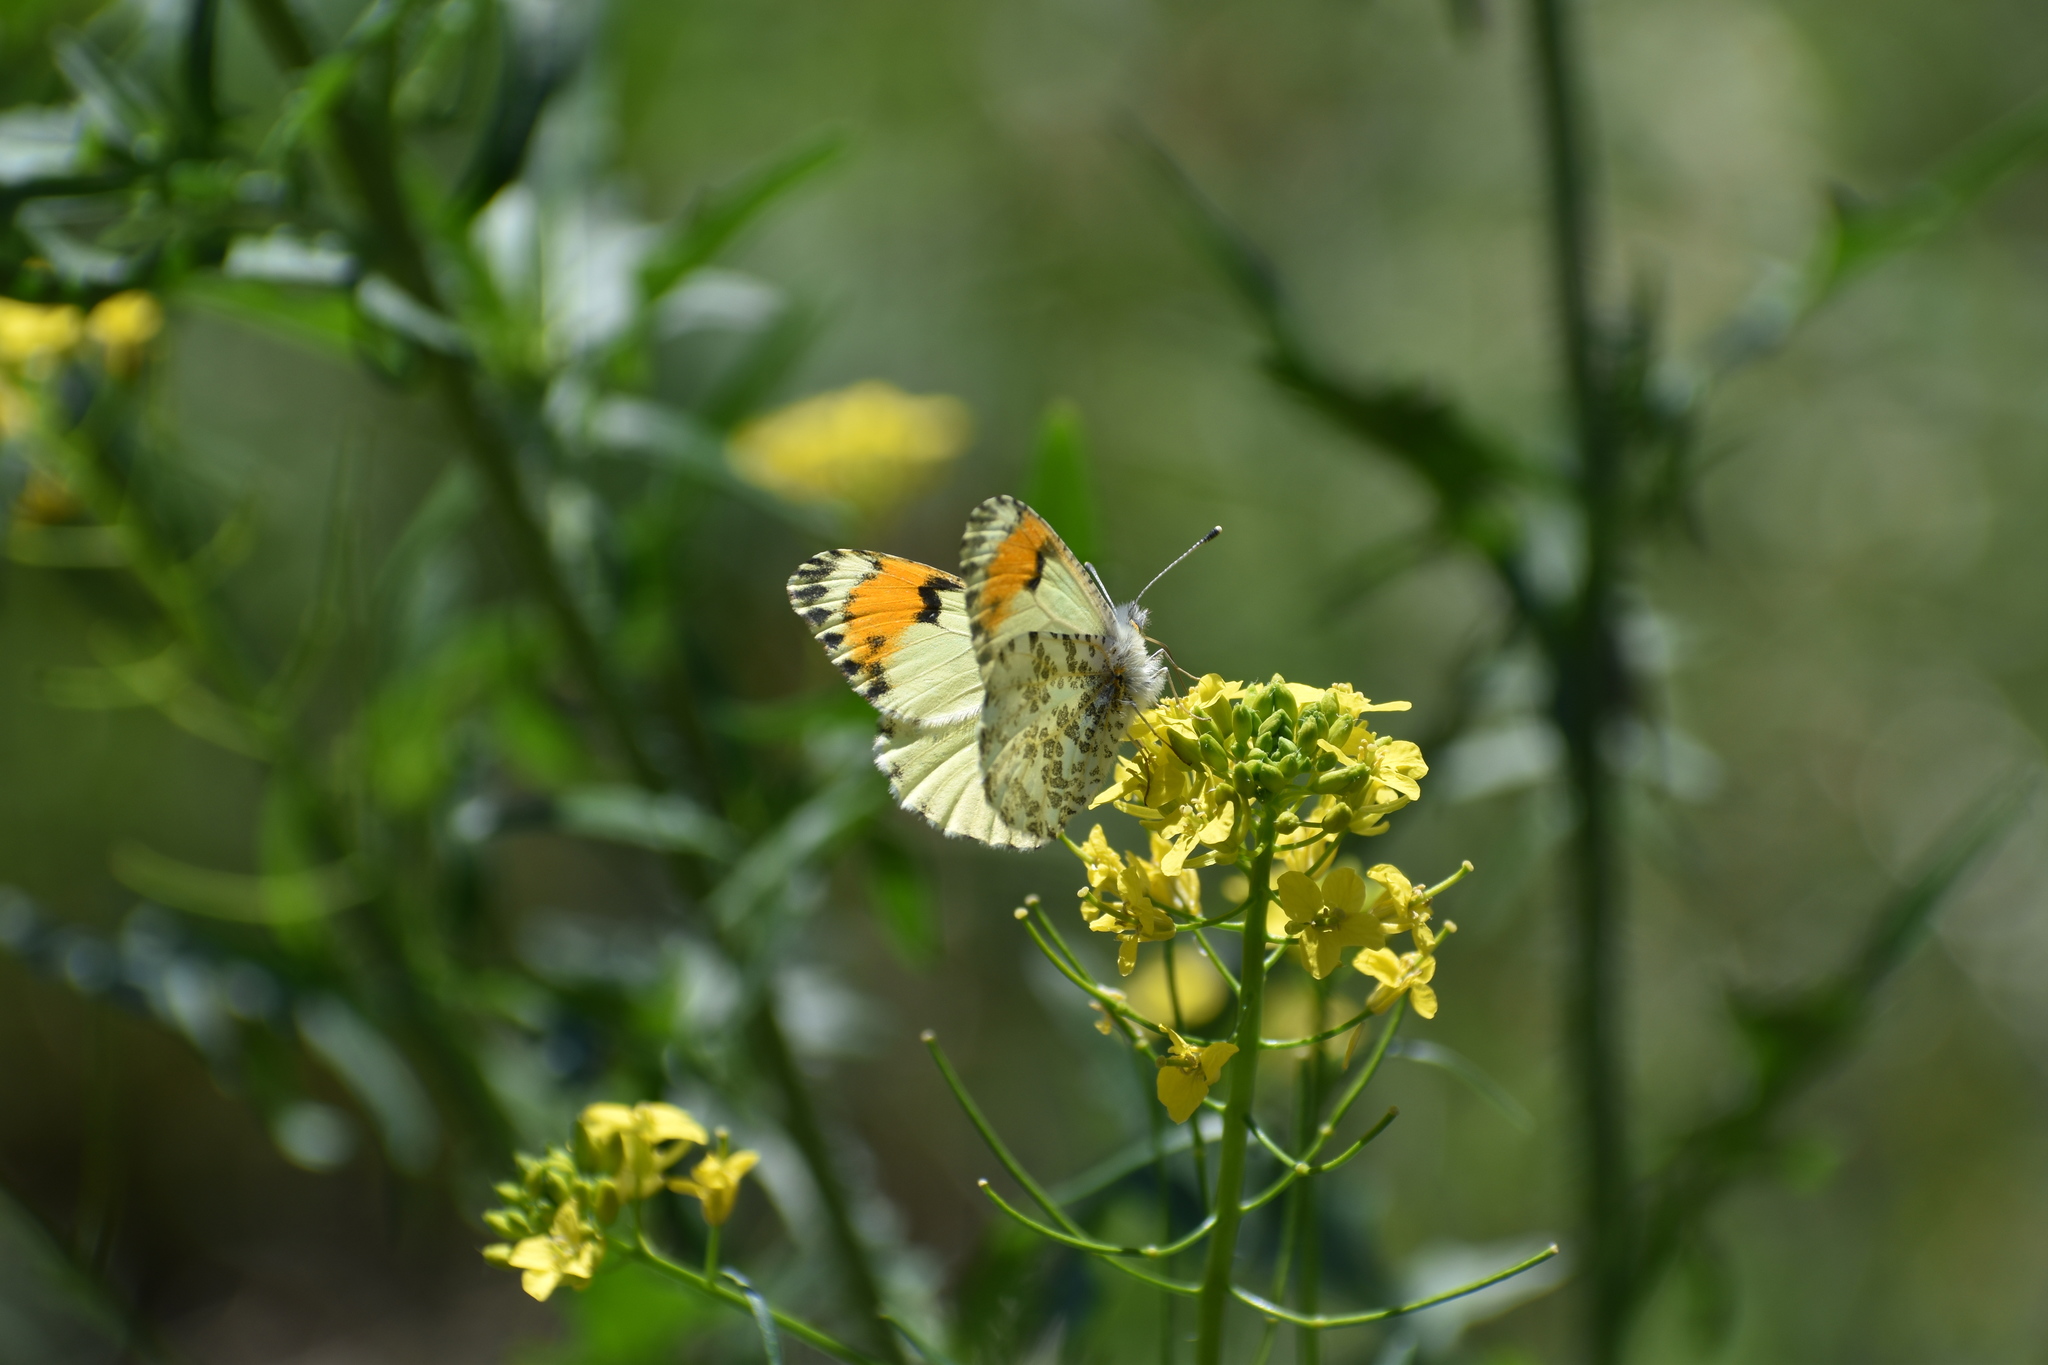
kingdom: Animalia
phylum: Arthropoda
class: Insecta
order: Lepidoptera
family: Pieridae
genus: Anthocharis
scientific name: Anthocharis julia
